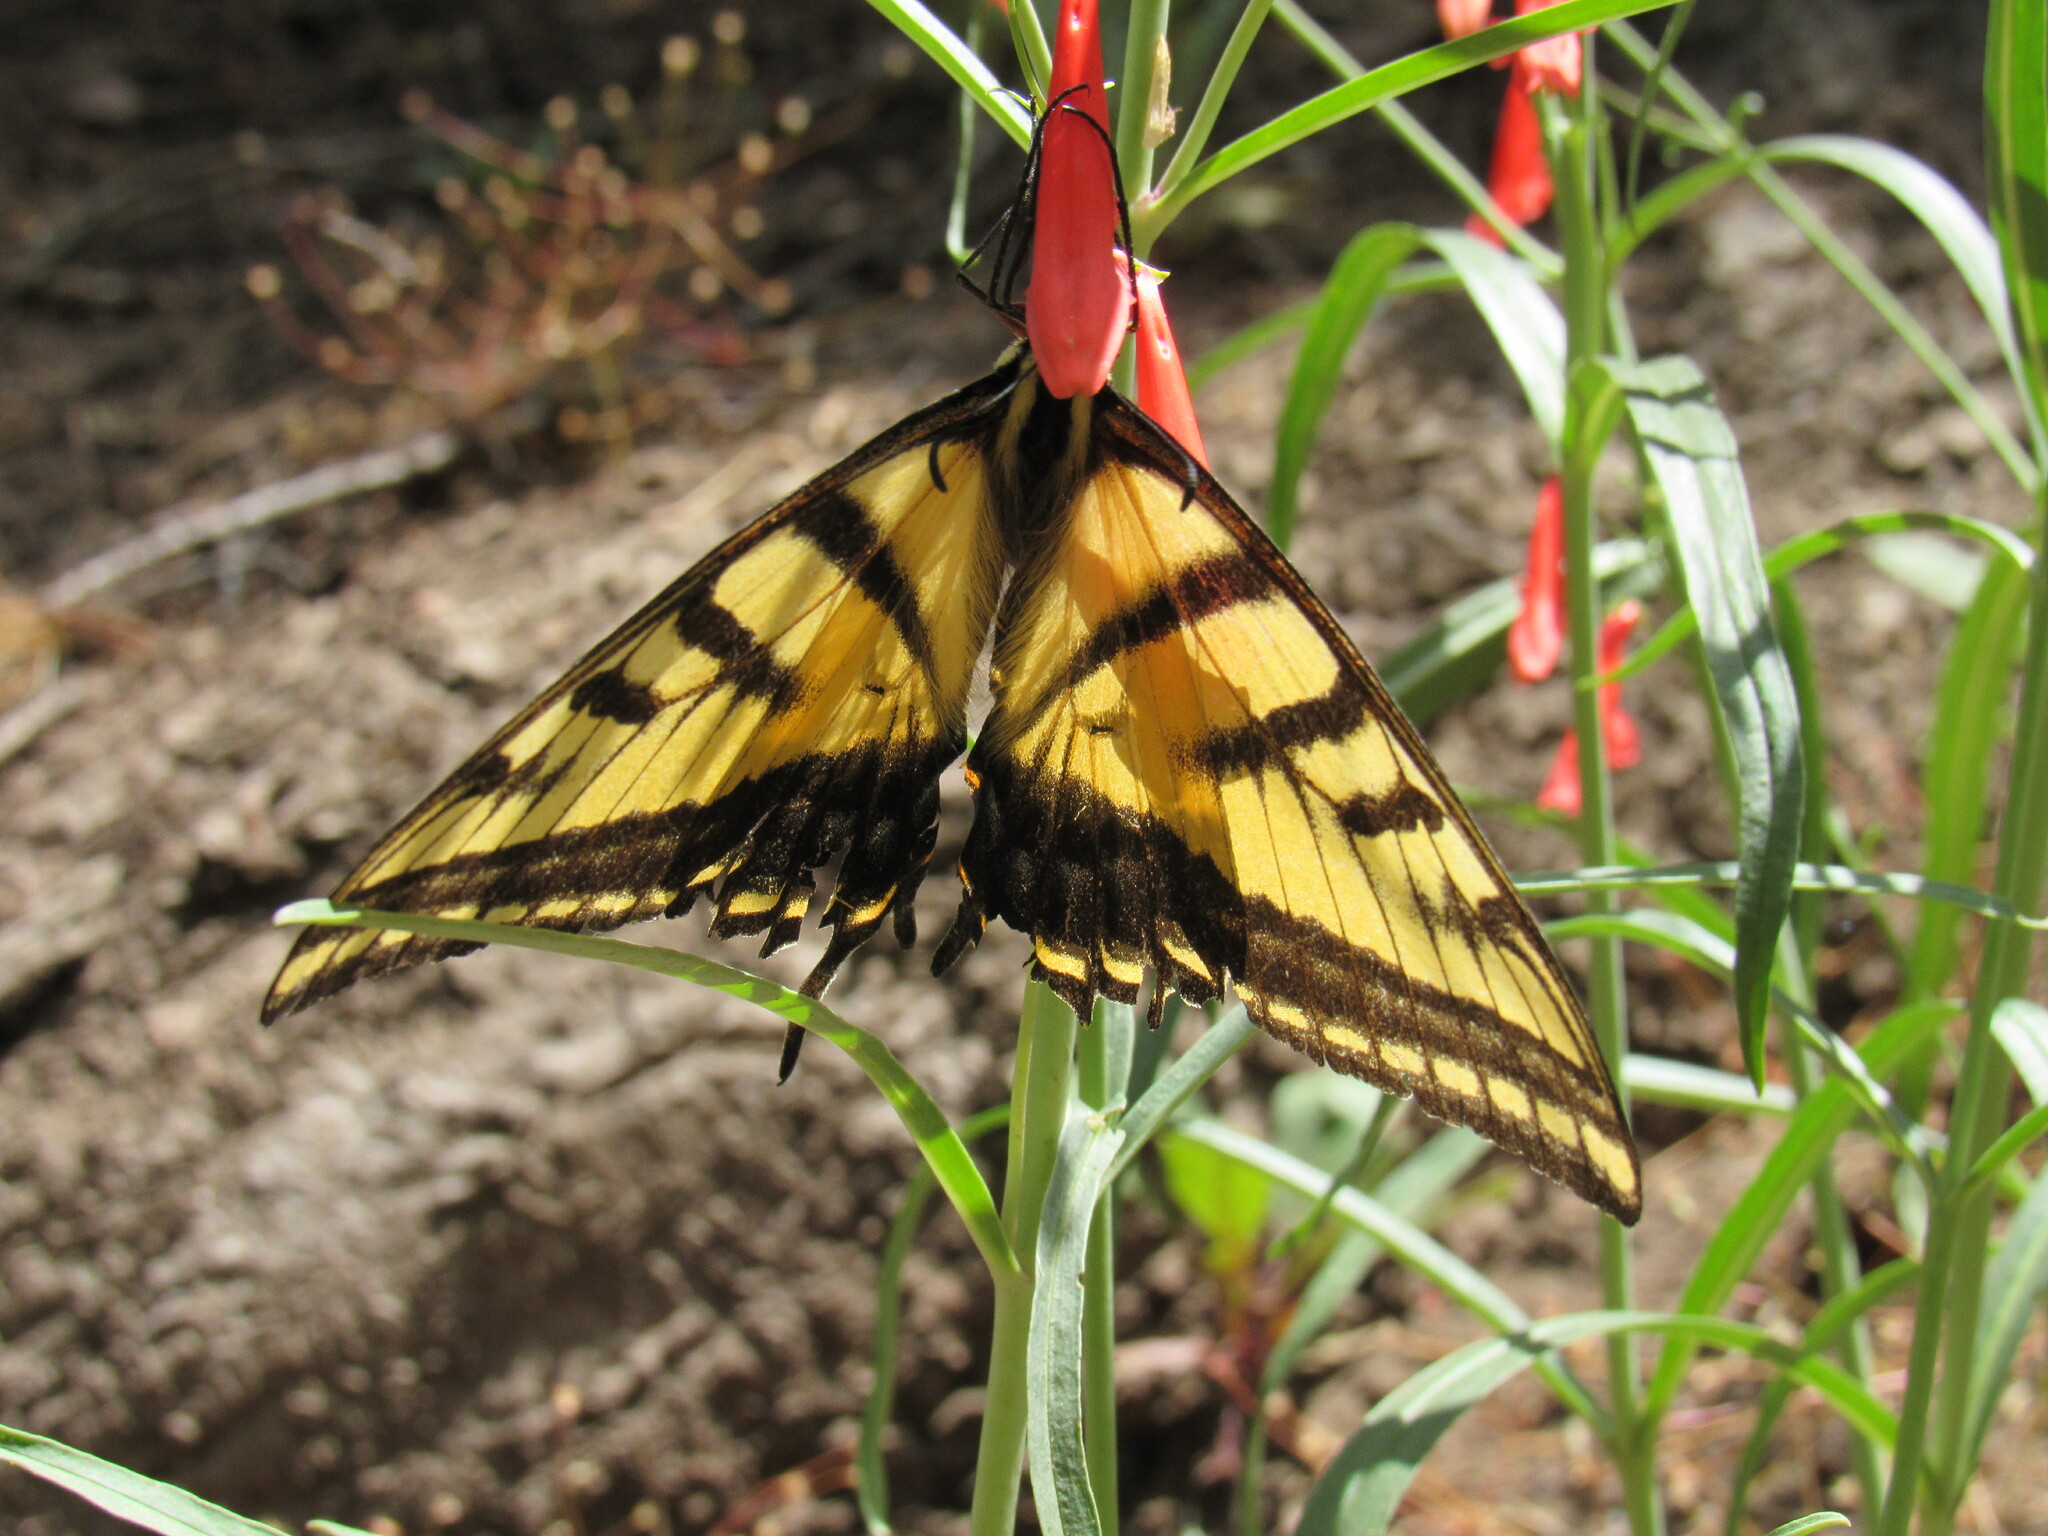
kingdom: Animalia
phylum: Arthropoda
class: Insecta
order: Lepidoptera
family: Papilionidae
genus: Papilio
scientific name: Papilio multicaudata
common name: Two-tailed tiger swallowtail
